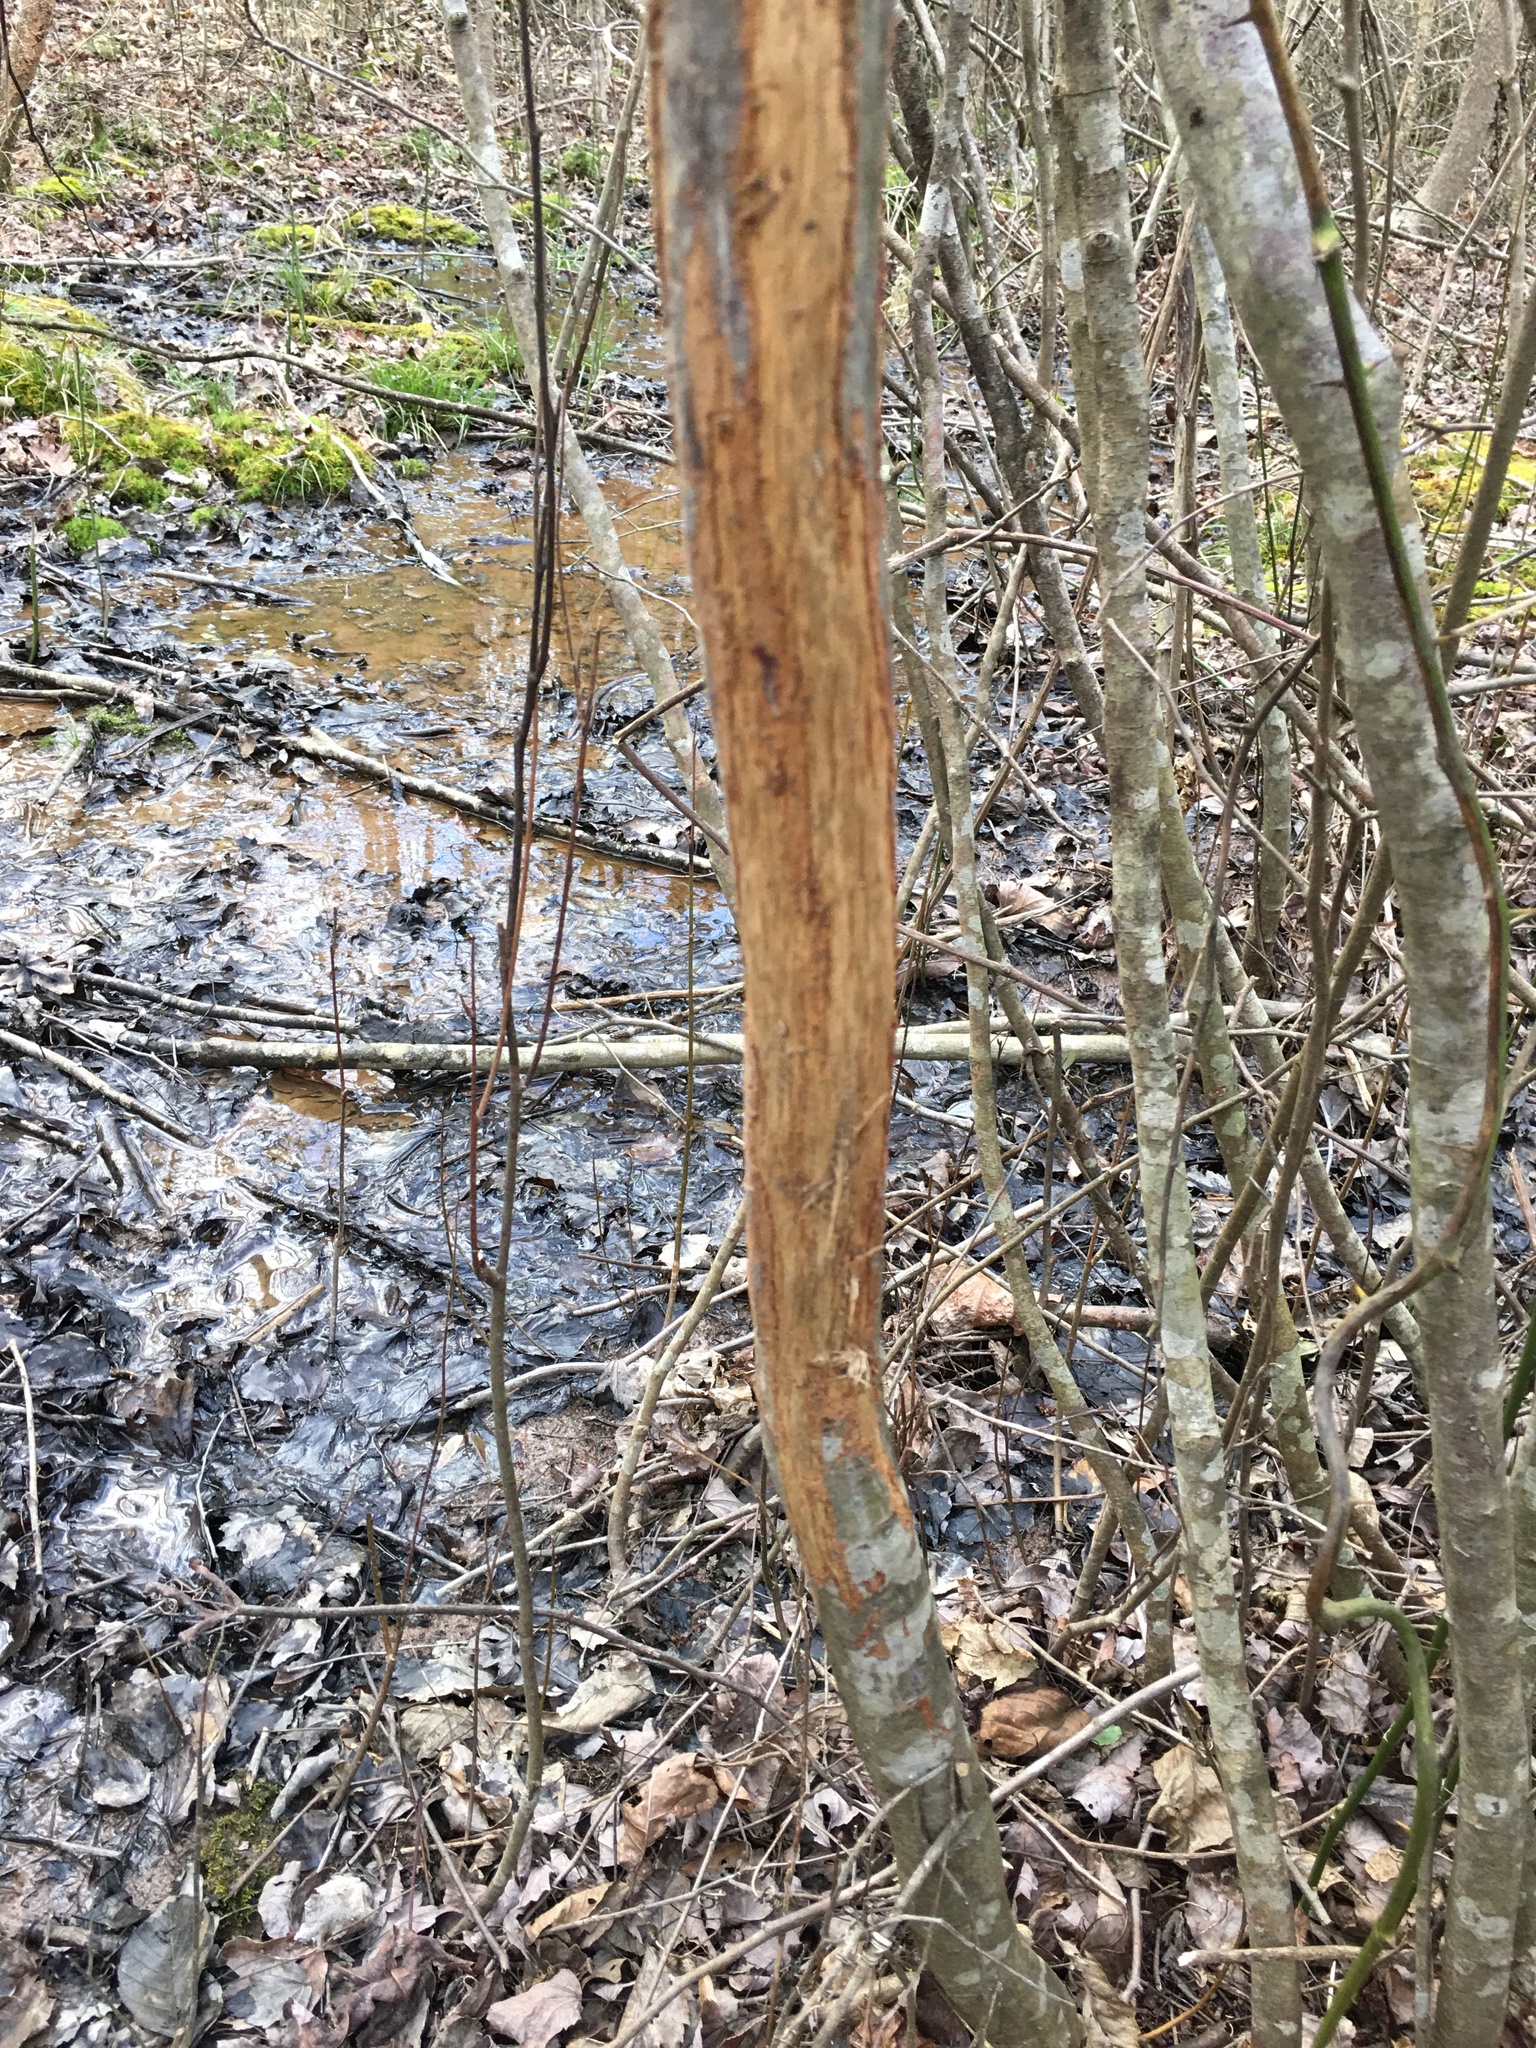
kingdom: Animalia
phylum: Chordata
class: Mammalia
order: Artiodactyla
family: Cervidae
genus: Odocoileus
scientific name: Odocoileus virginianus
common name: White-tailed deer
